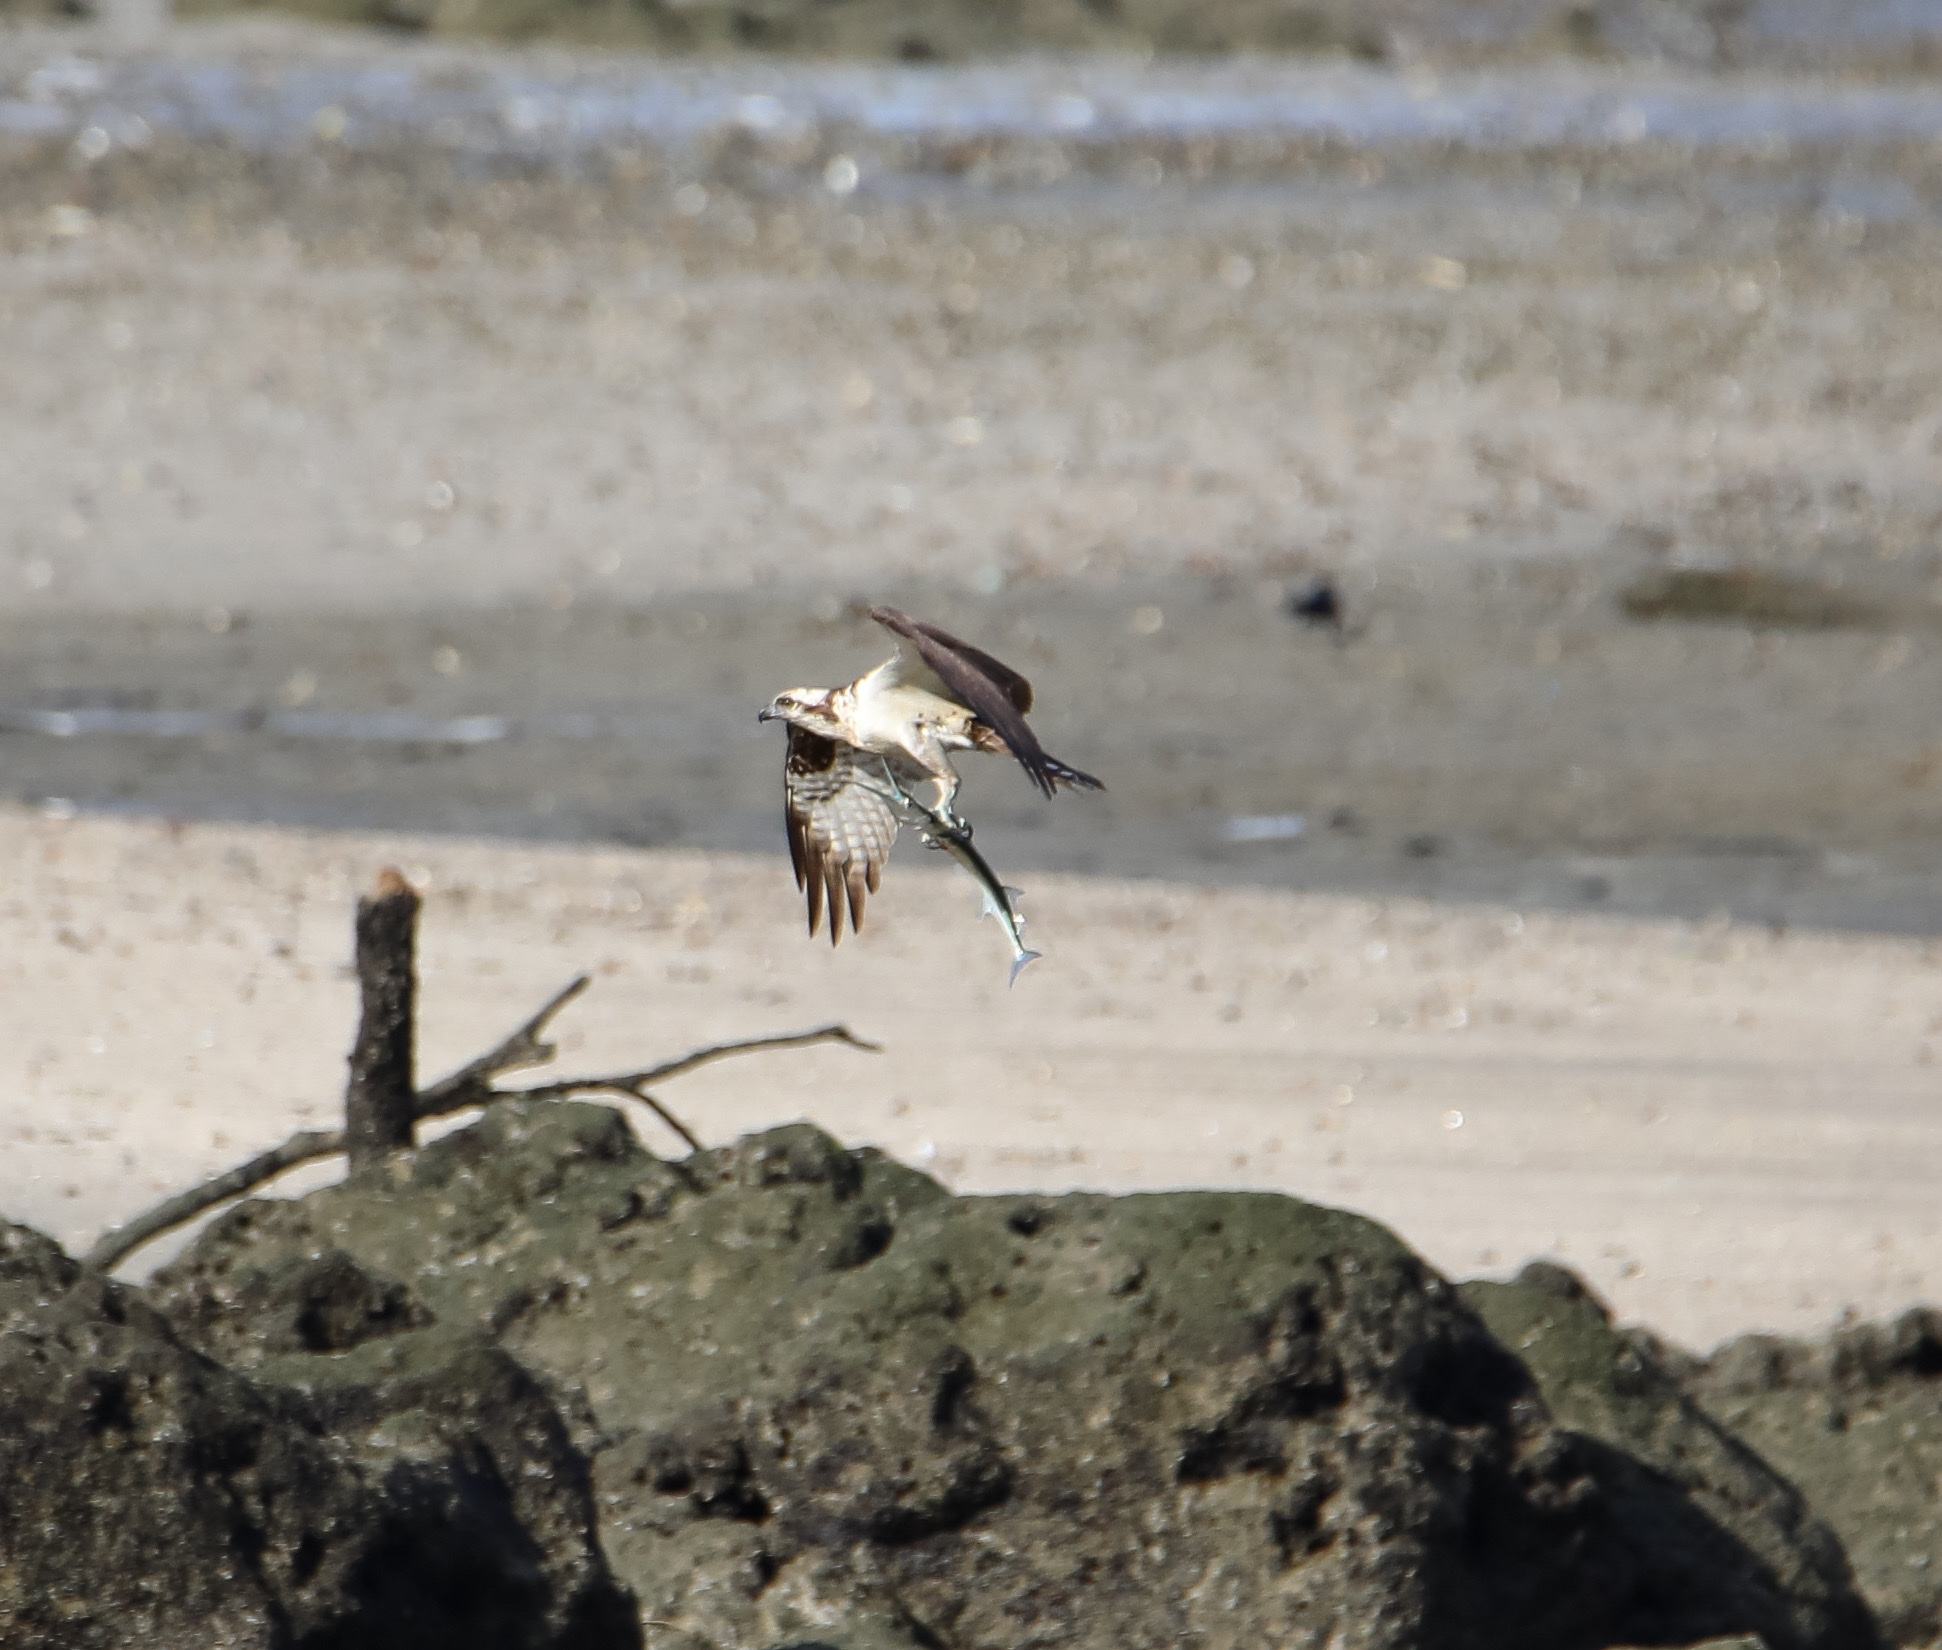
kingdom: Animalia
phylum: Chordata
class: Aves
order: Accipitriformes
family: Pandionidae
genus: Pandion
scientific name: Pandion haliaetus
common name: Osprey
